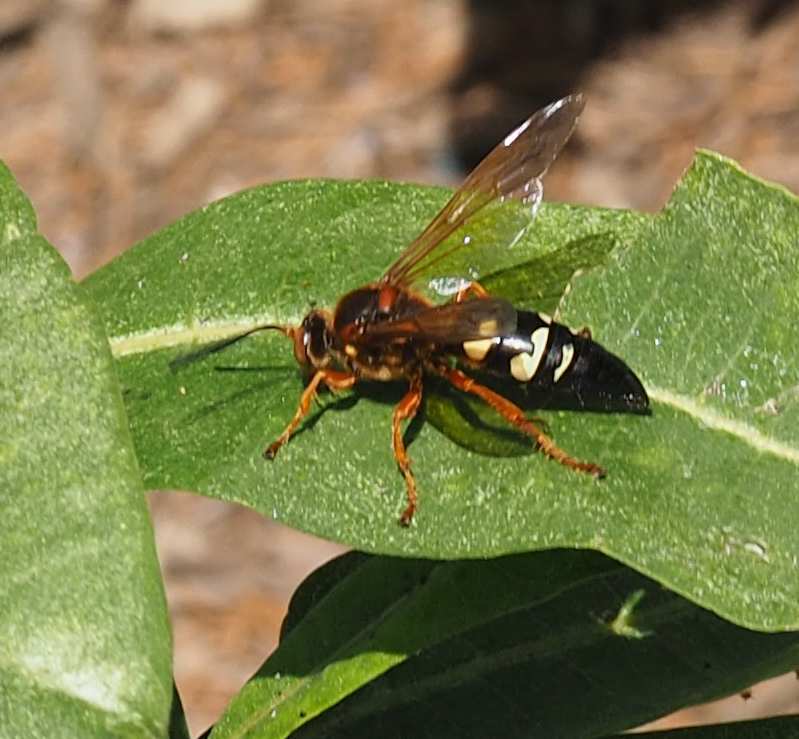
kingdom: Animalia
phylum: Arthropoda
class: Insecta
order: Hymenoptera
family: Crabronidae
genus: Sphecius
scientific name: Sphecius speciosus
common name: Cicada killer
